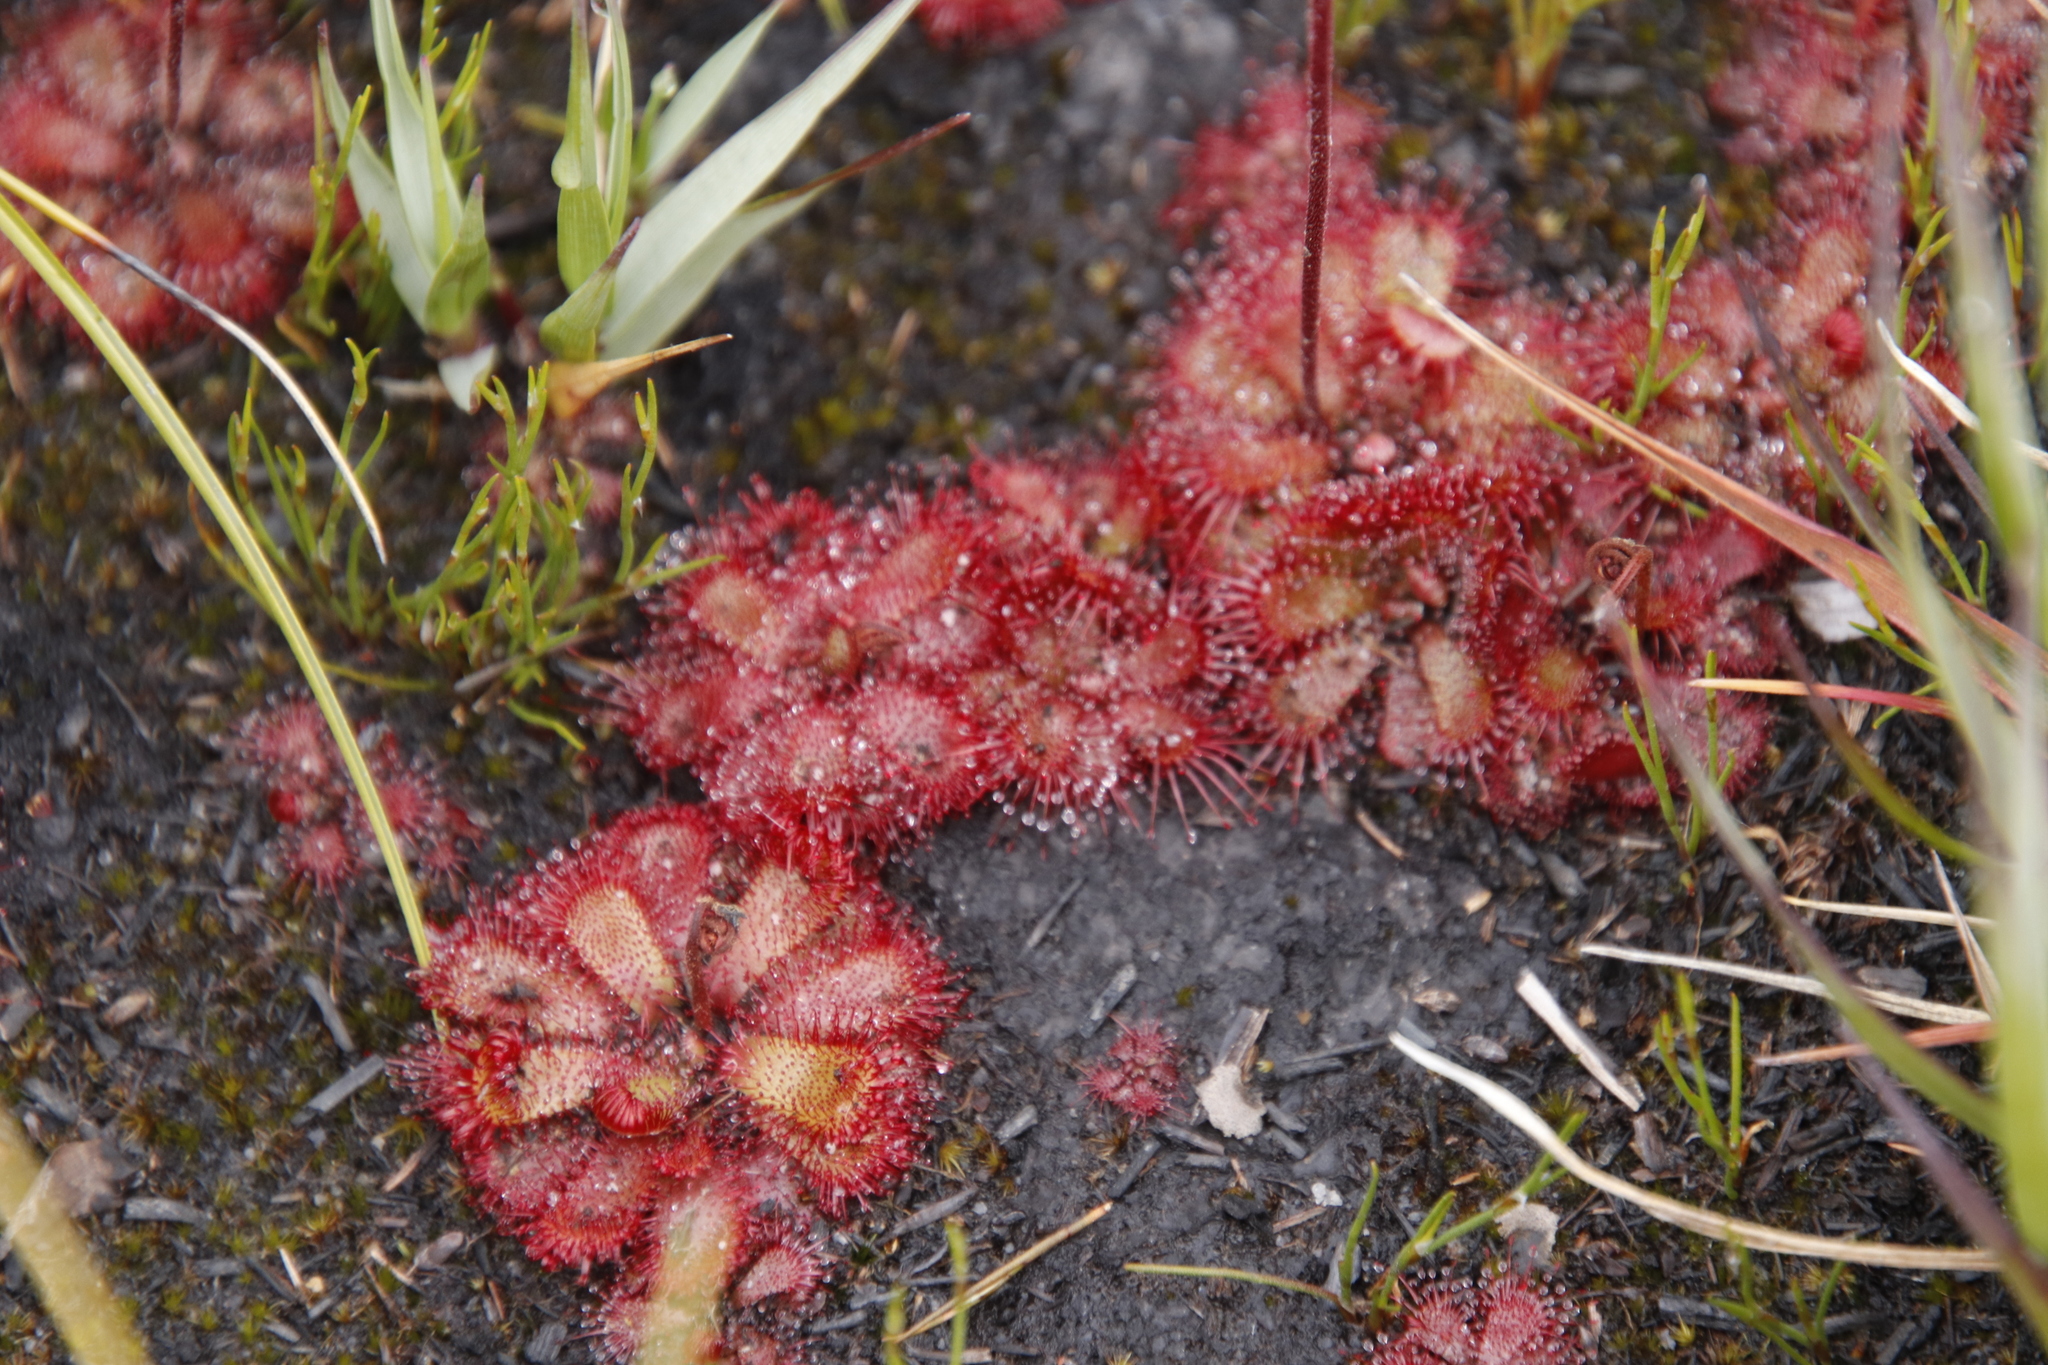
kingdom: Plantae
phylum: Tracheophyta
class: Magnoliopsida
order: Caryophyllales
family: Droseraceae
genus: Drosera
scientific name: Drosera cuneifolia
